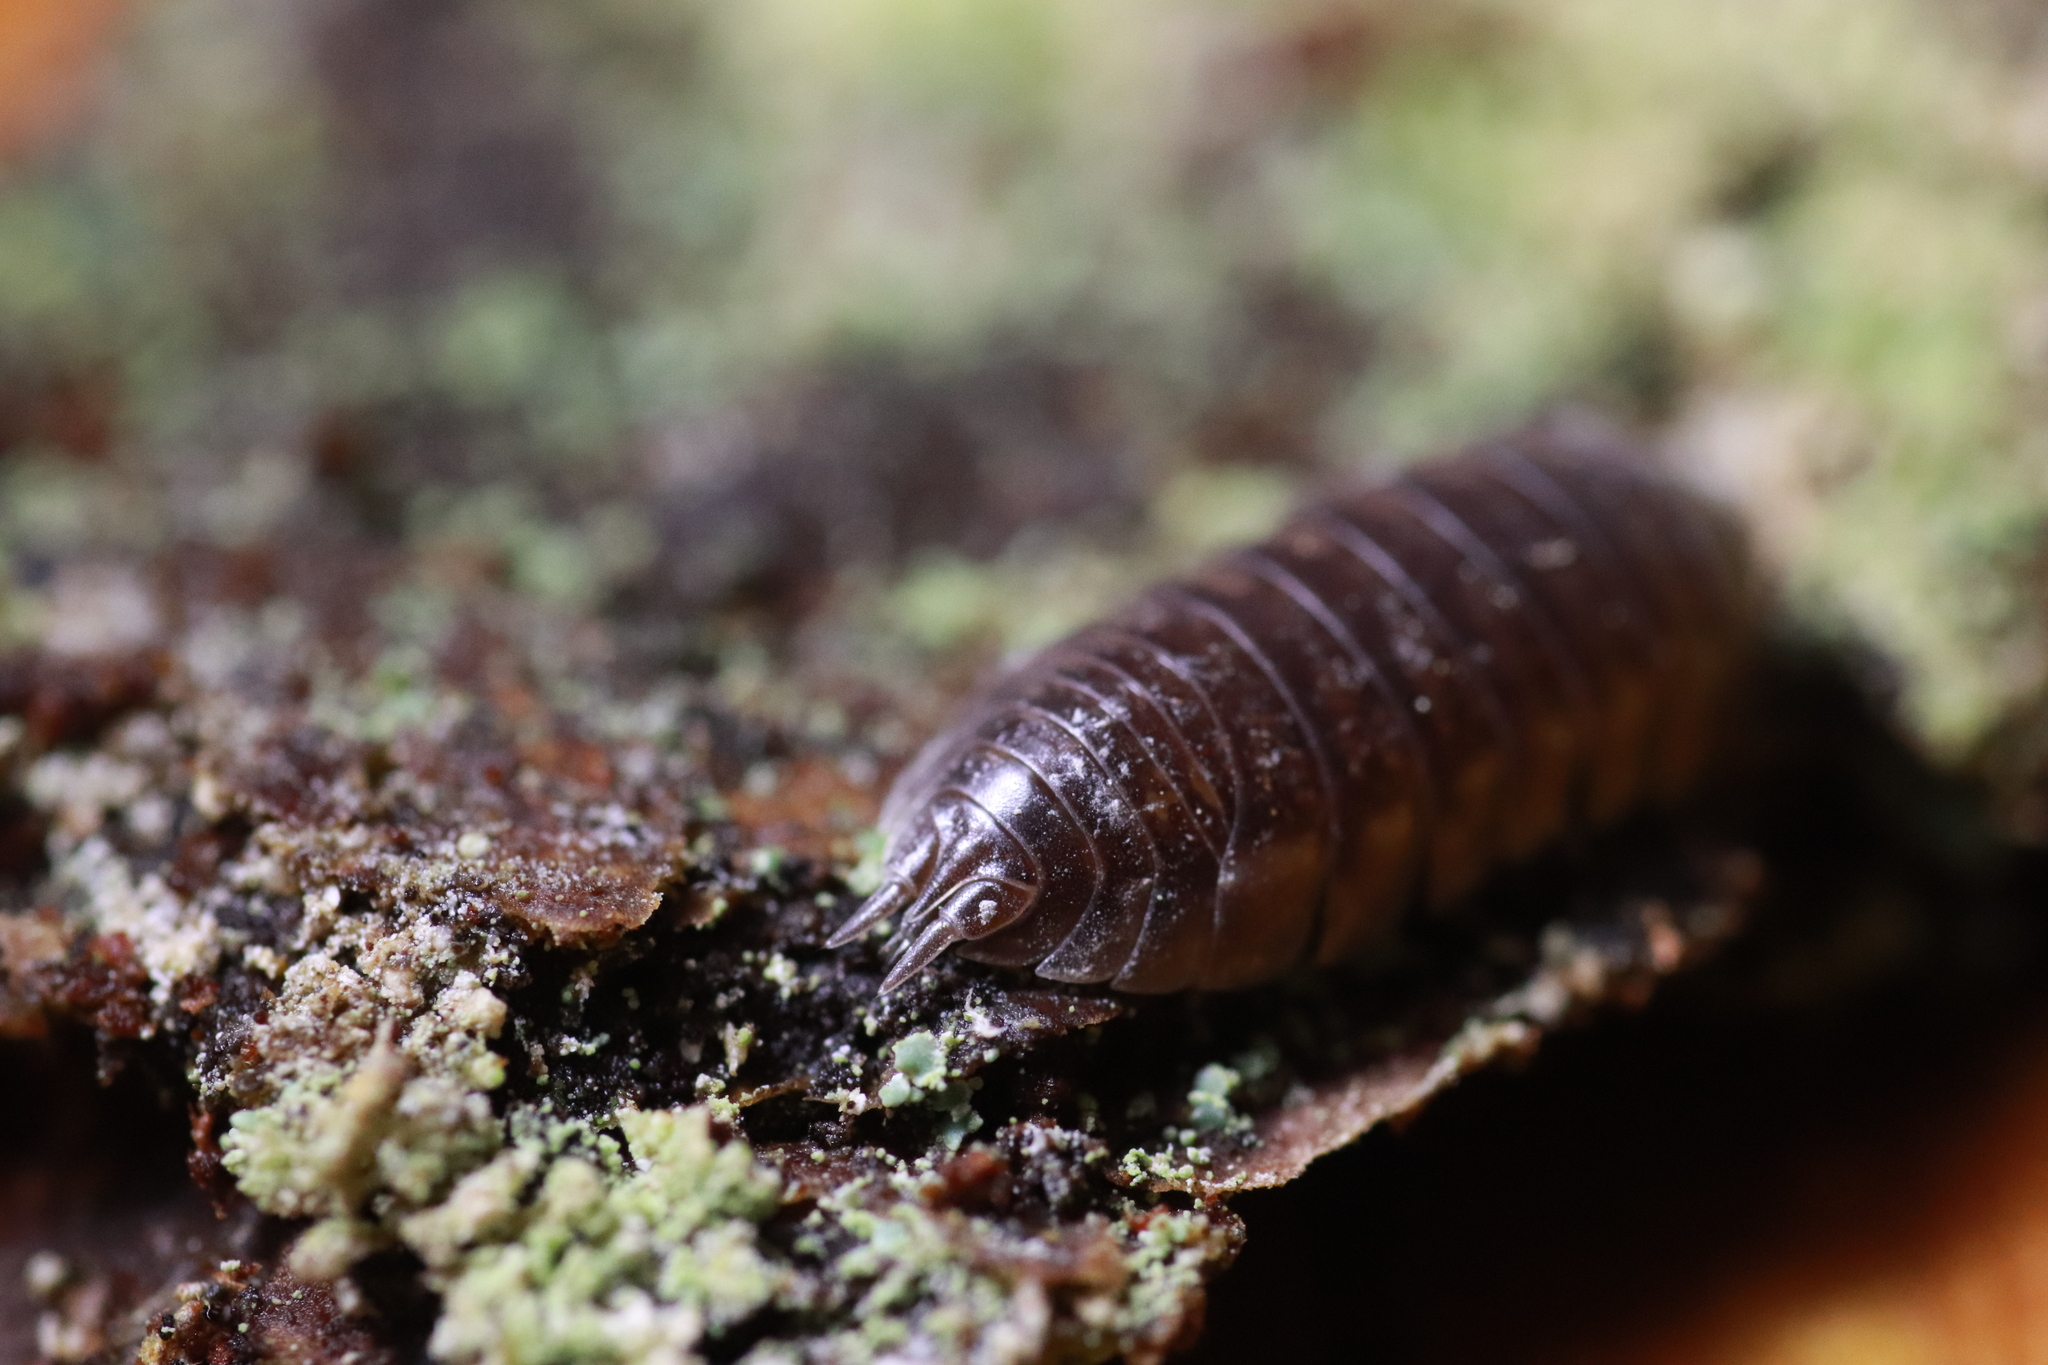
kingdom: Animalia
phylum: Arthropoda
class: Malacostraca
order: Isopoda
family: Cylisticidae
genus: Cylisticus
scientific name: Cylisticus convexus
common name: Curly woodlouse
